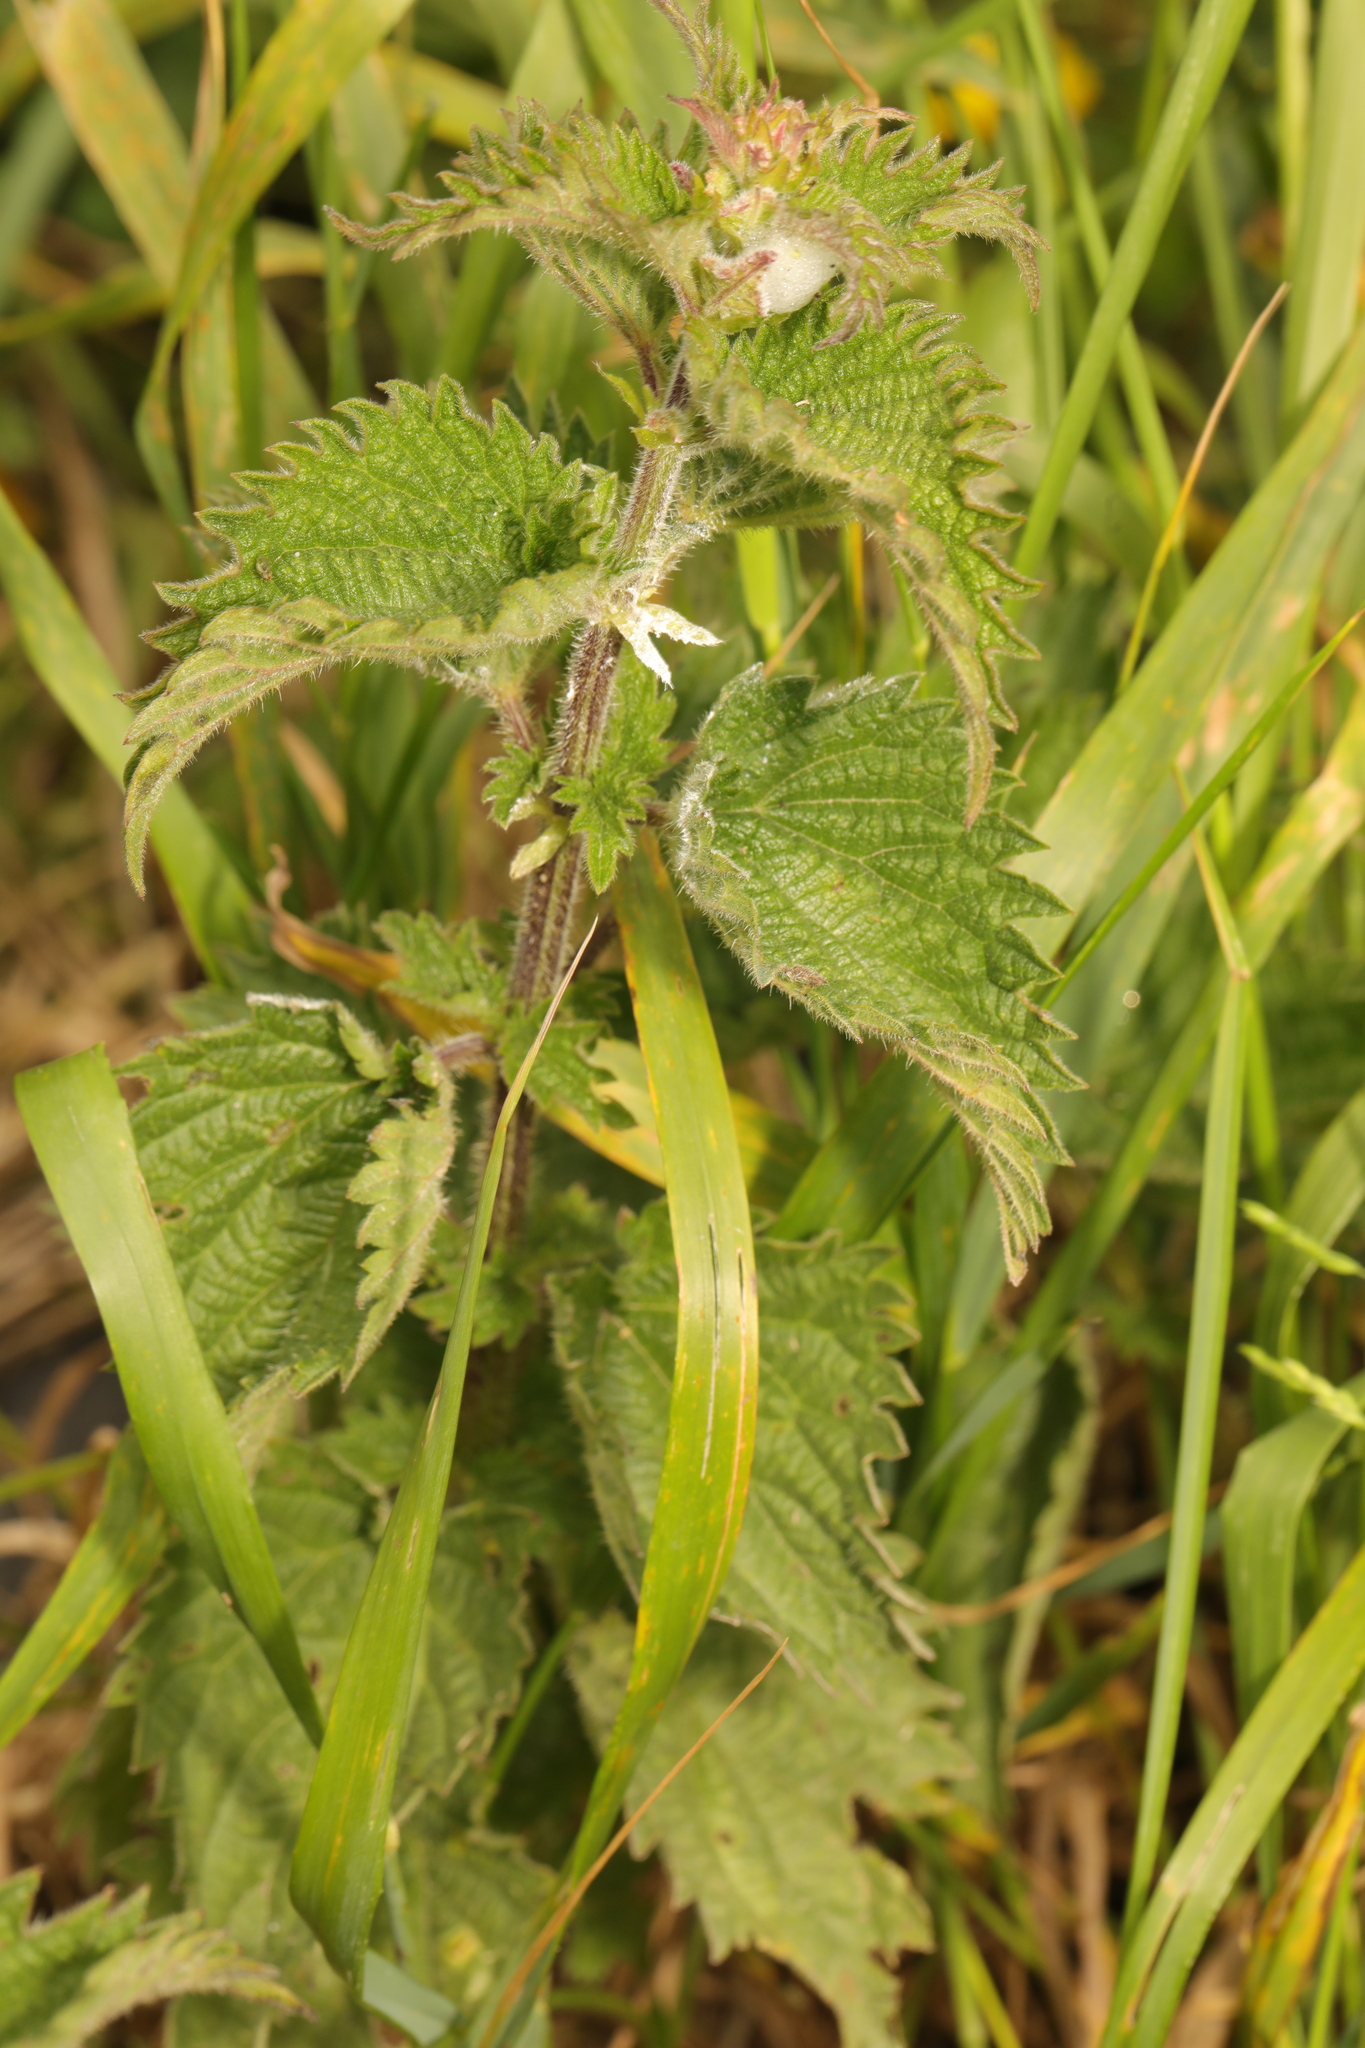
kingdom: Plantae
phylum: Tracheophyta
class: Magnoliopsida
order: Rosales
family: Urticaceae
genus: Urtica
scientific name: Urtica dioica
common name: Common nettle
